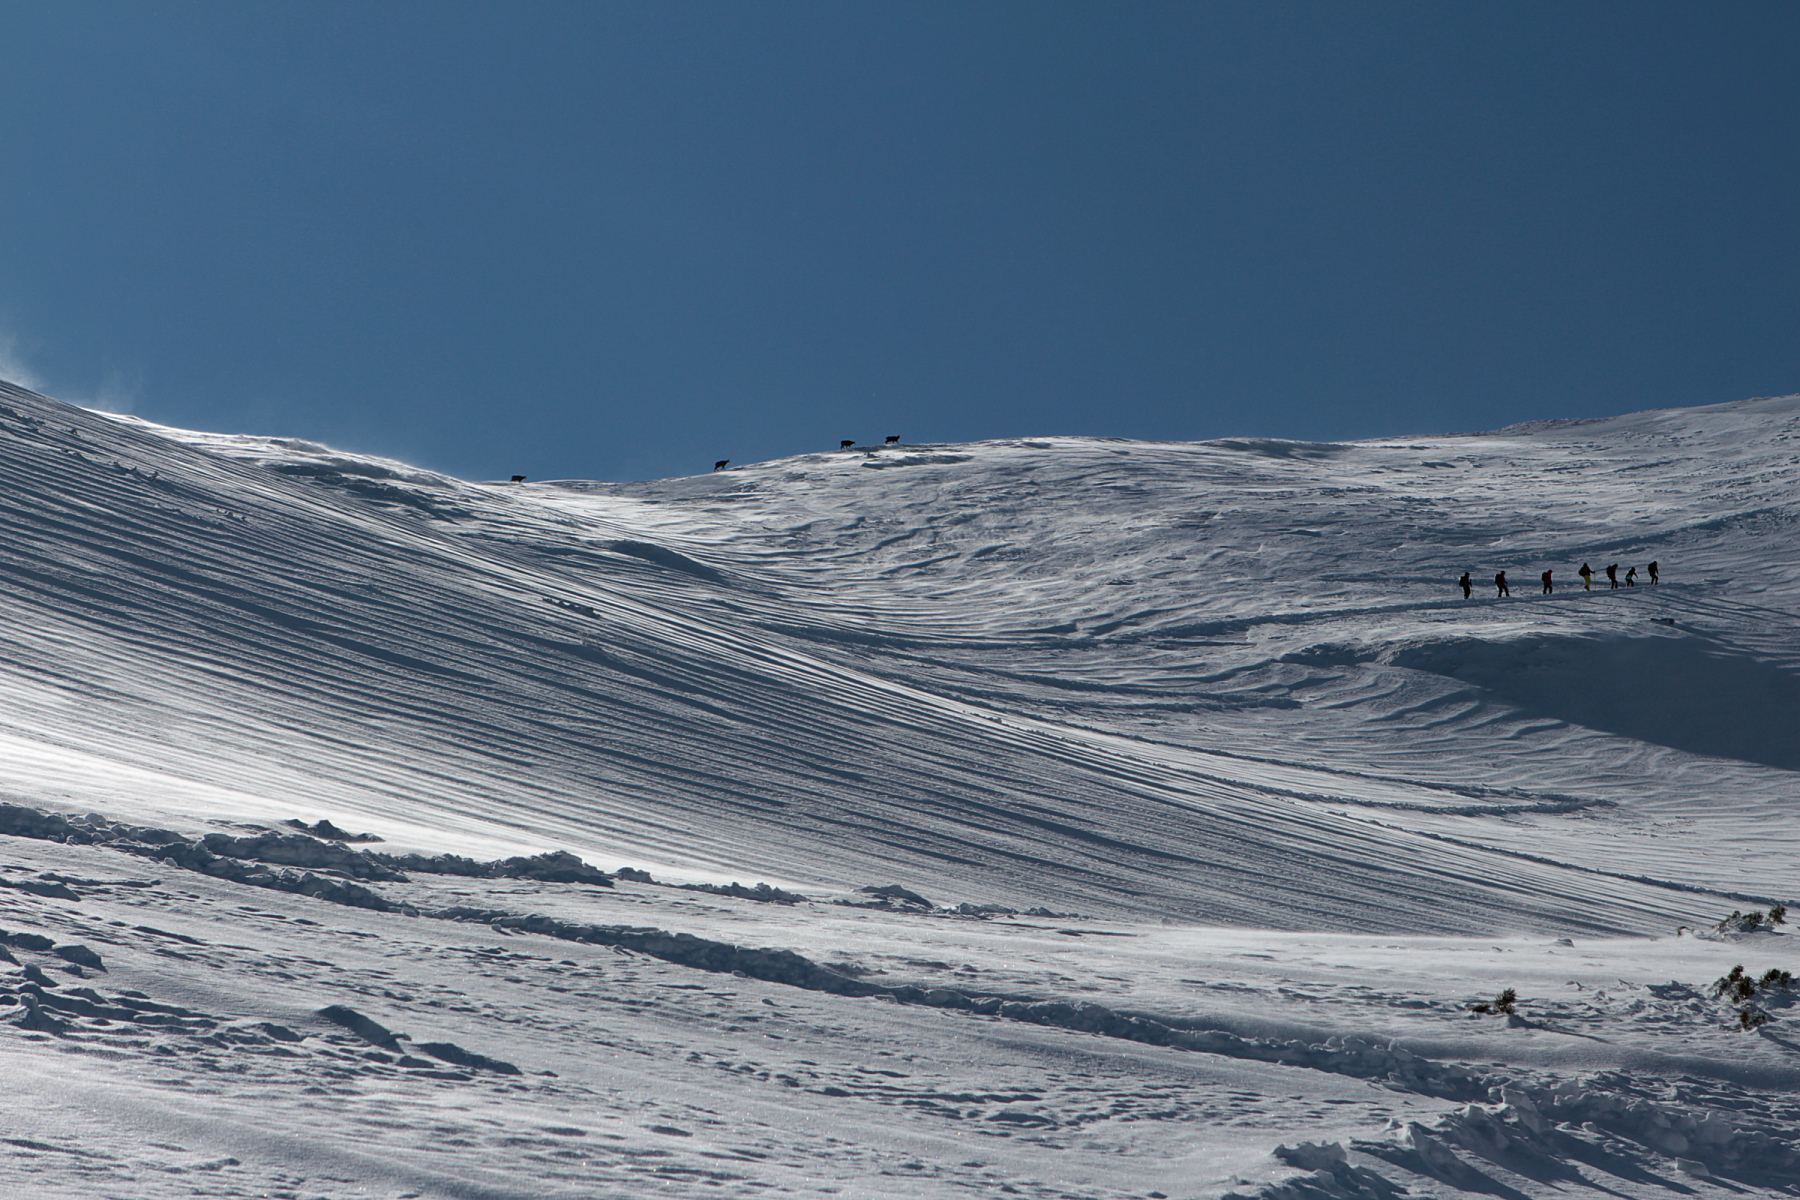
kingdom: Animalia
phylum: Chordata
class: Mammalia
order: Artiodactyla
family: Bovidae
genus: Rupicapra
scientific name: Rupicapra rupicapra
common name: Chamois
